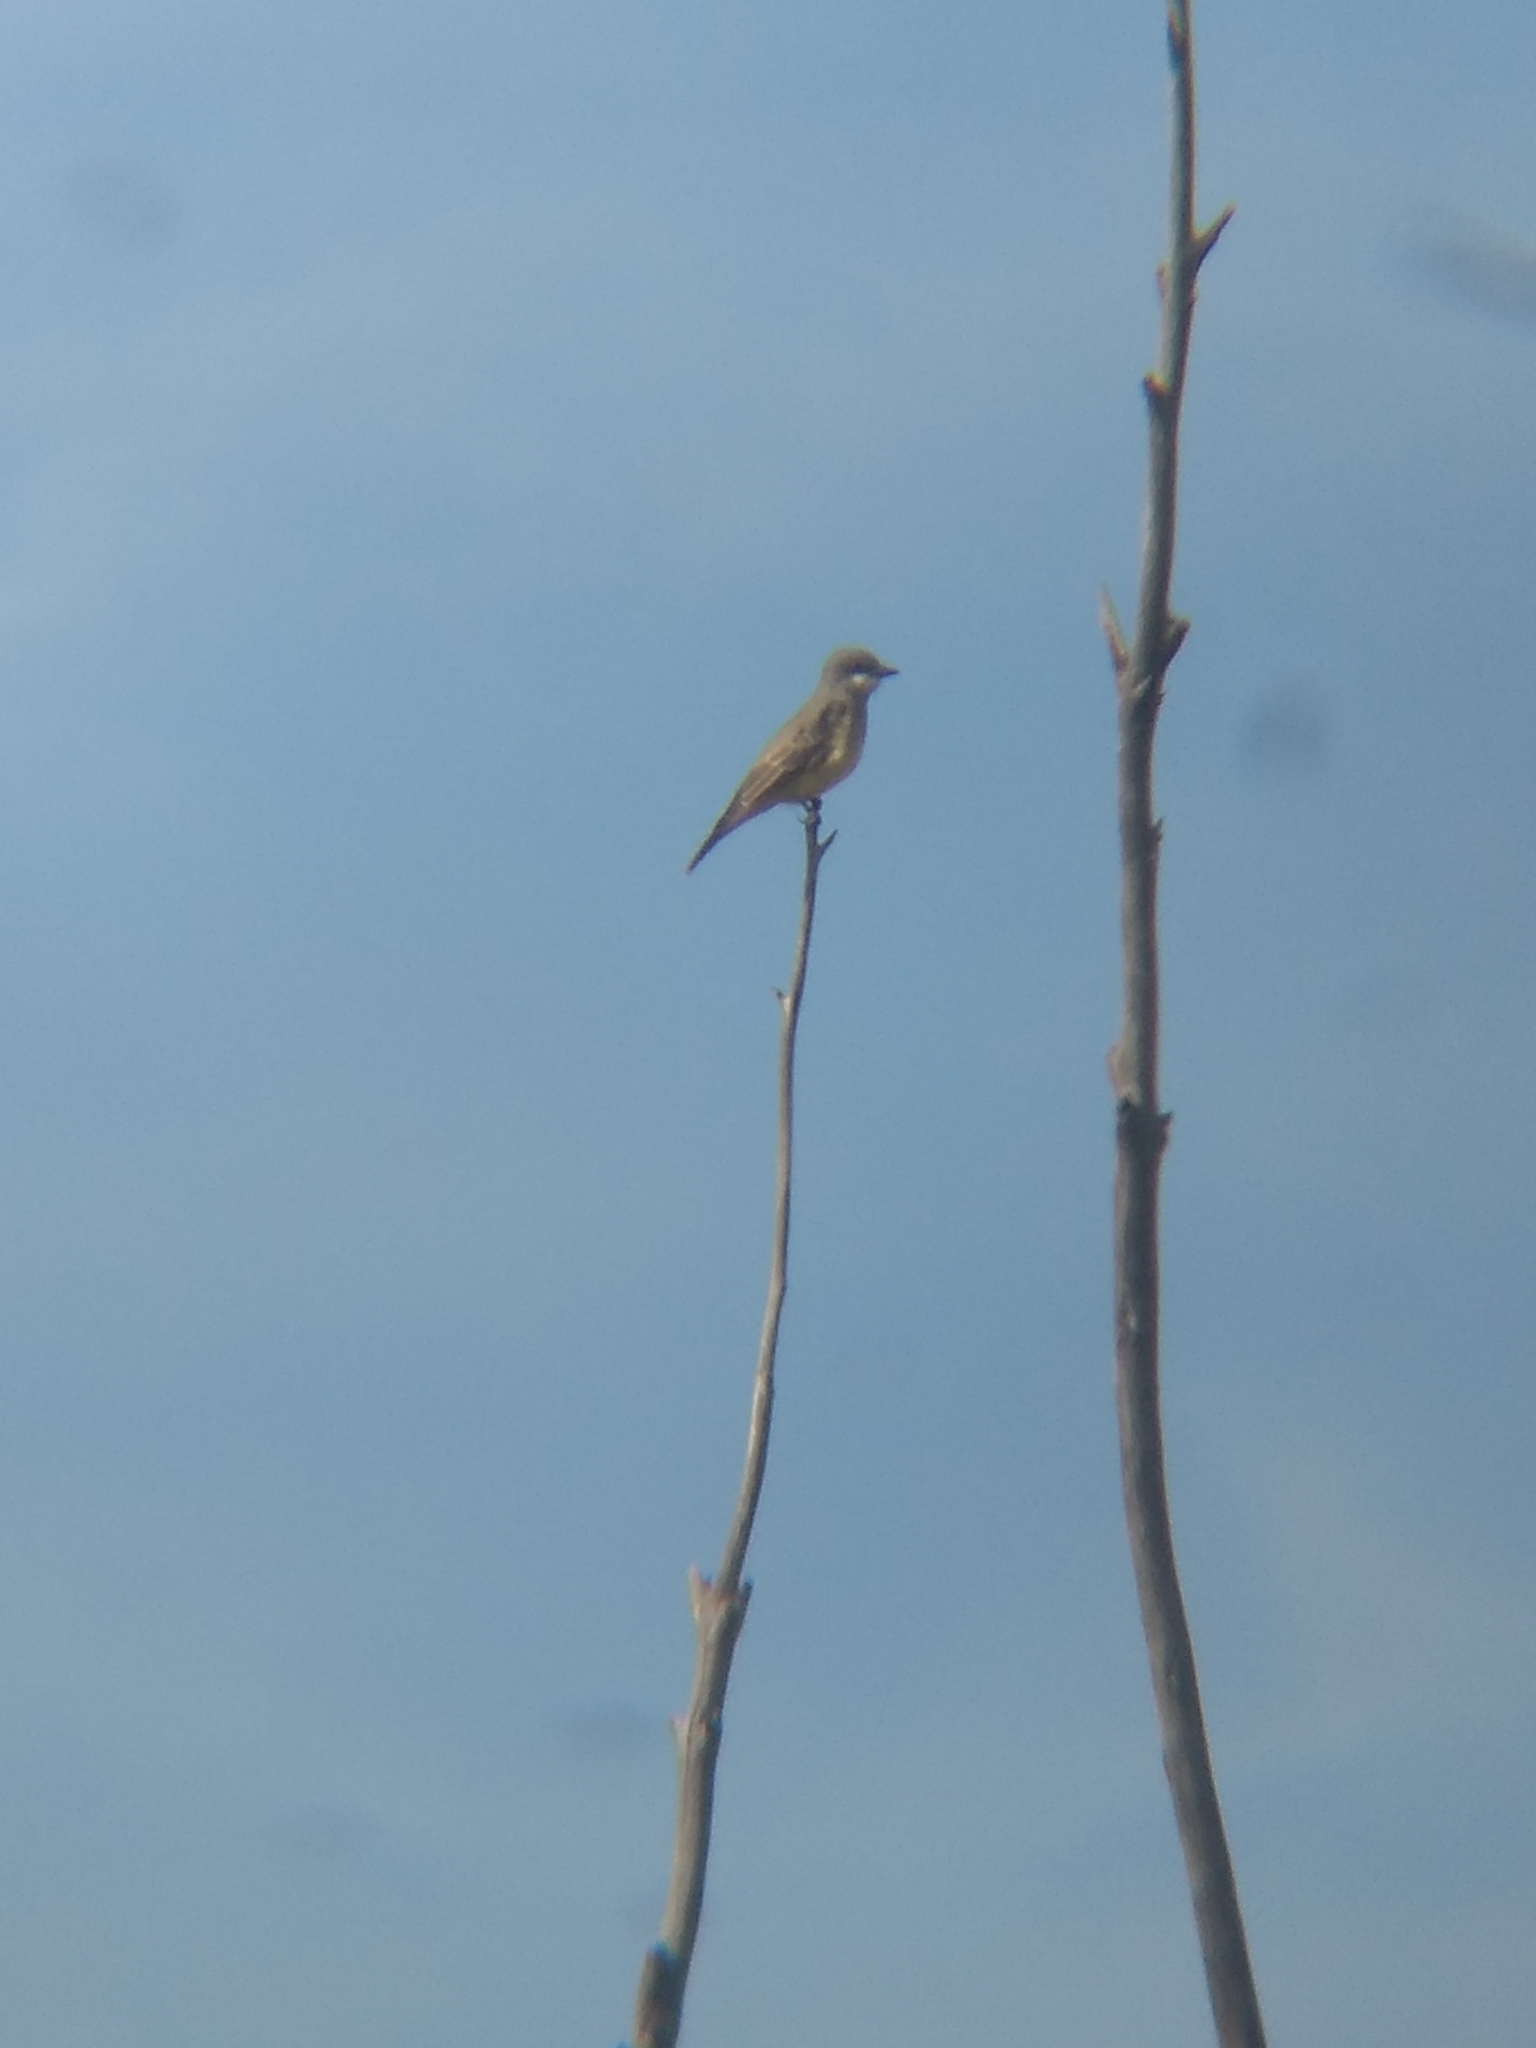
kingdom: Animalia
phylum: Chordata
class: Aves
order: Passeriformes
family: Tyrannidae
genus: Tyrannus
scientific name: Tyrannus vociferans
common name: Cassin's kingbird
